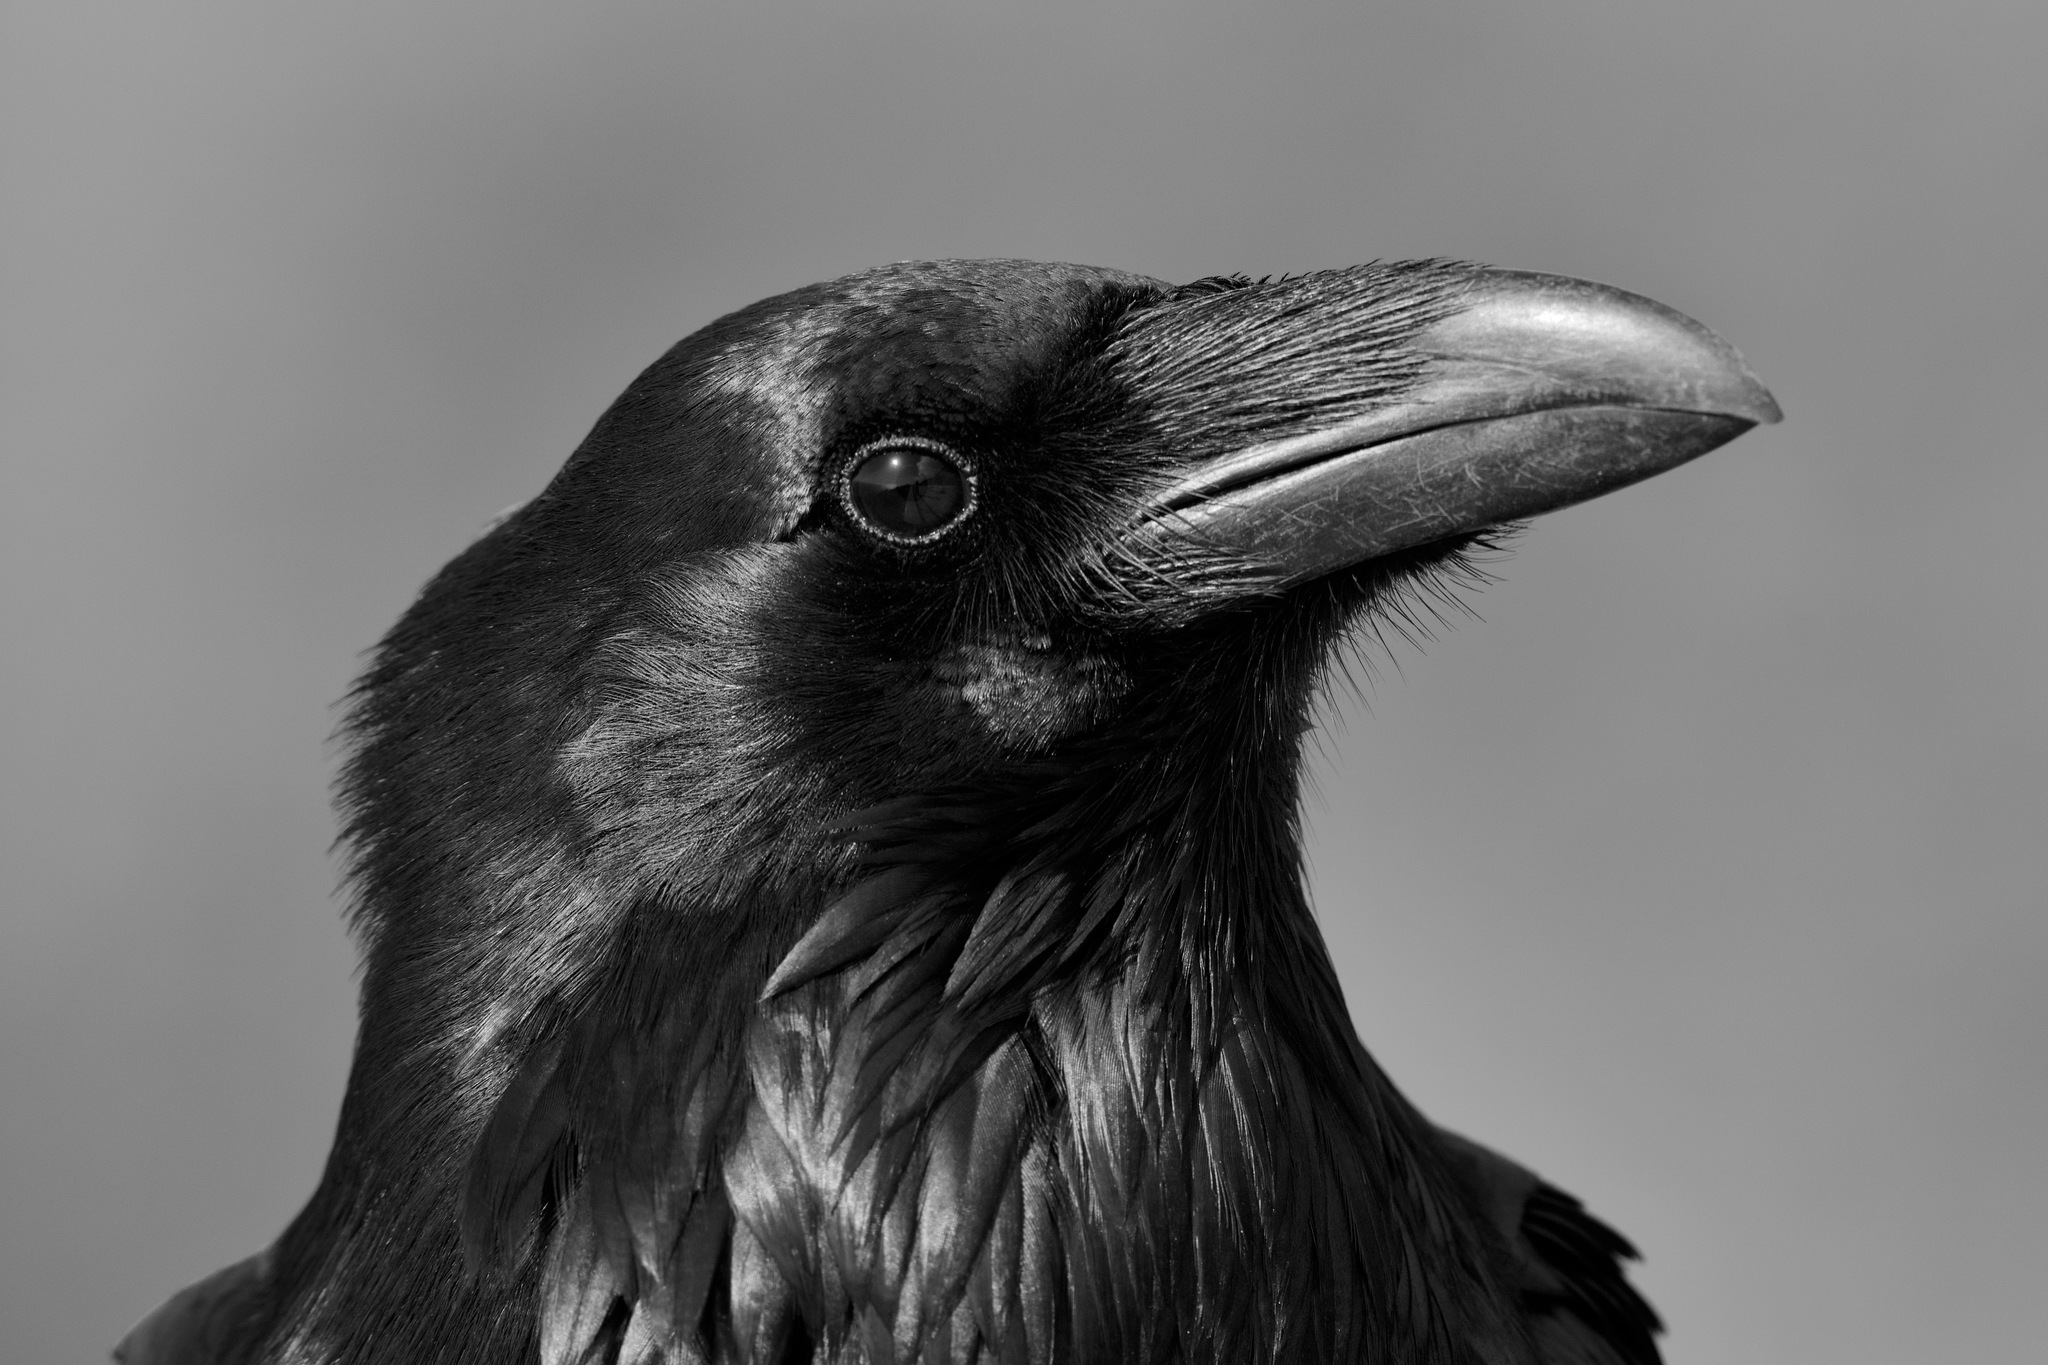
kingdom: Animalia
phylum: Chordata
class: Aves
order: Passeriformes
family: Corvidae
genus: Corvus
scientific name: Corvus corax
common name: Common raven
